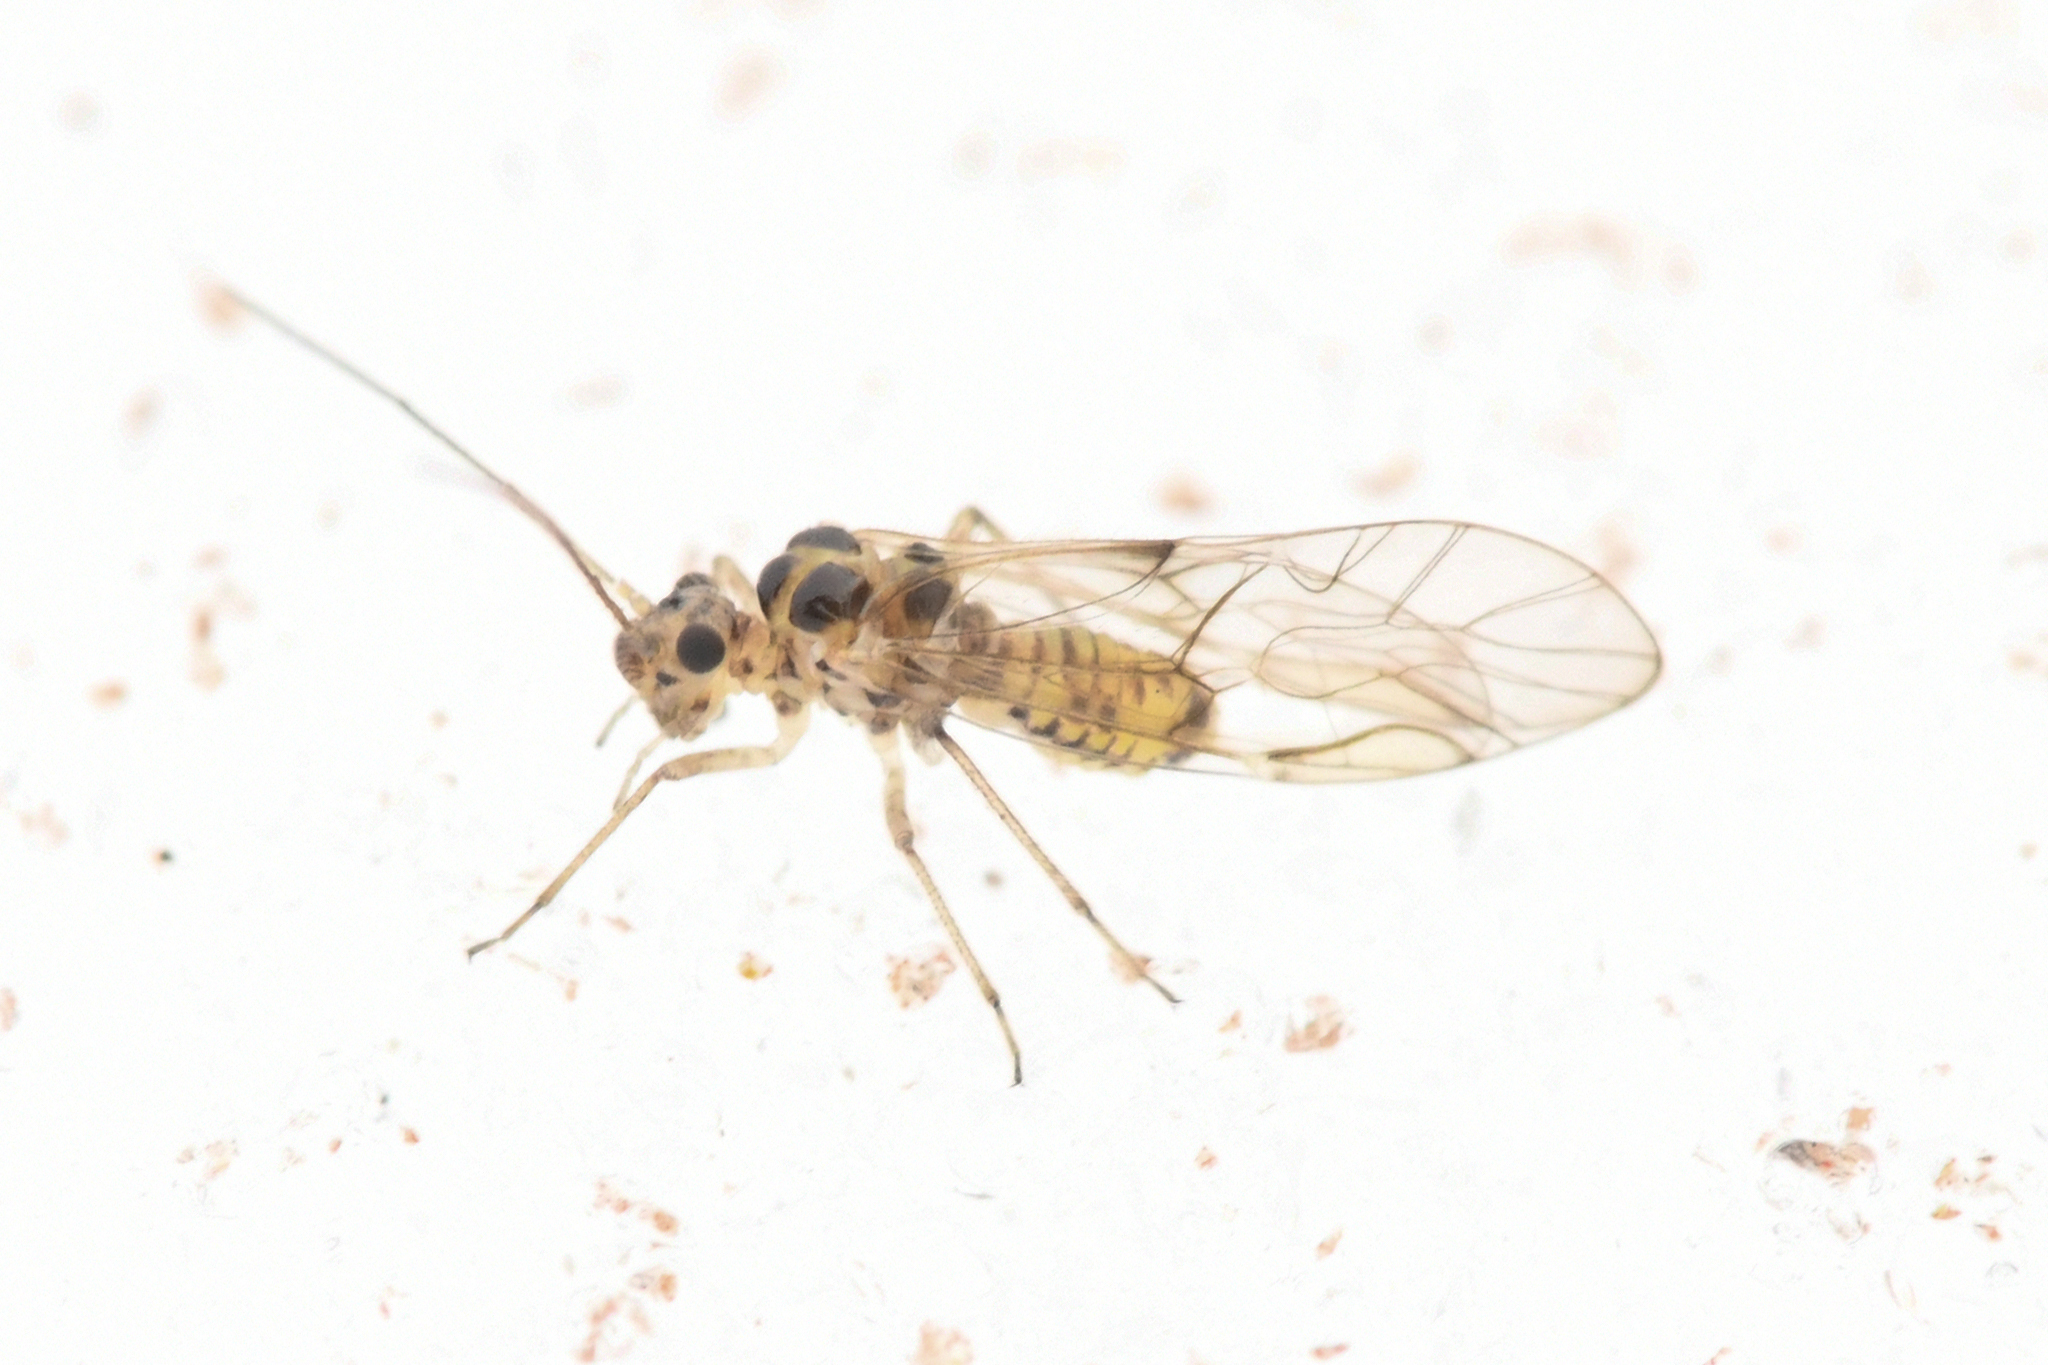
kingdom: Animalia
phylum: Arthropoda
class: Insecta
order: Psocodea
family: Dasydemellidae
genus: Teliapsocus
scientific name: Teliapsocus conterminus
